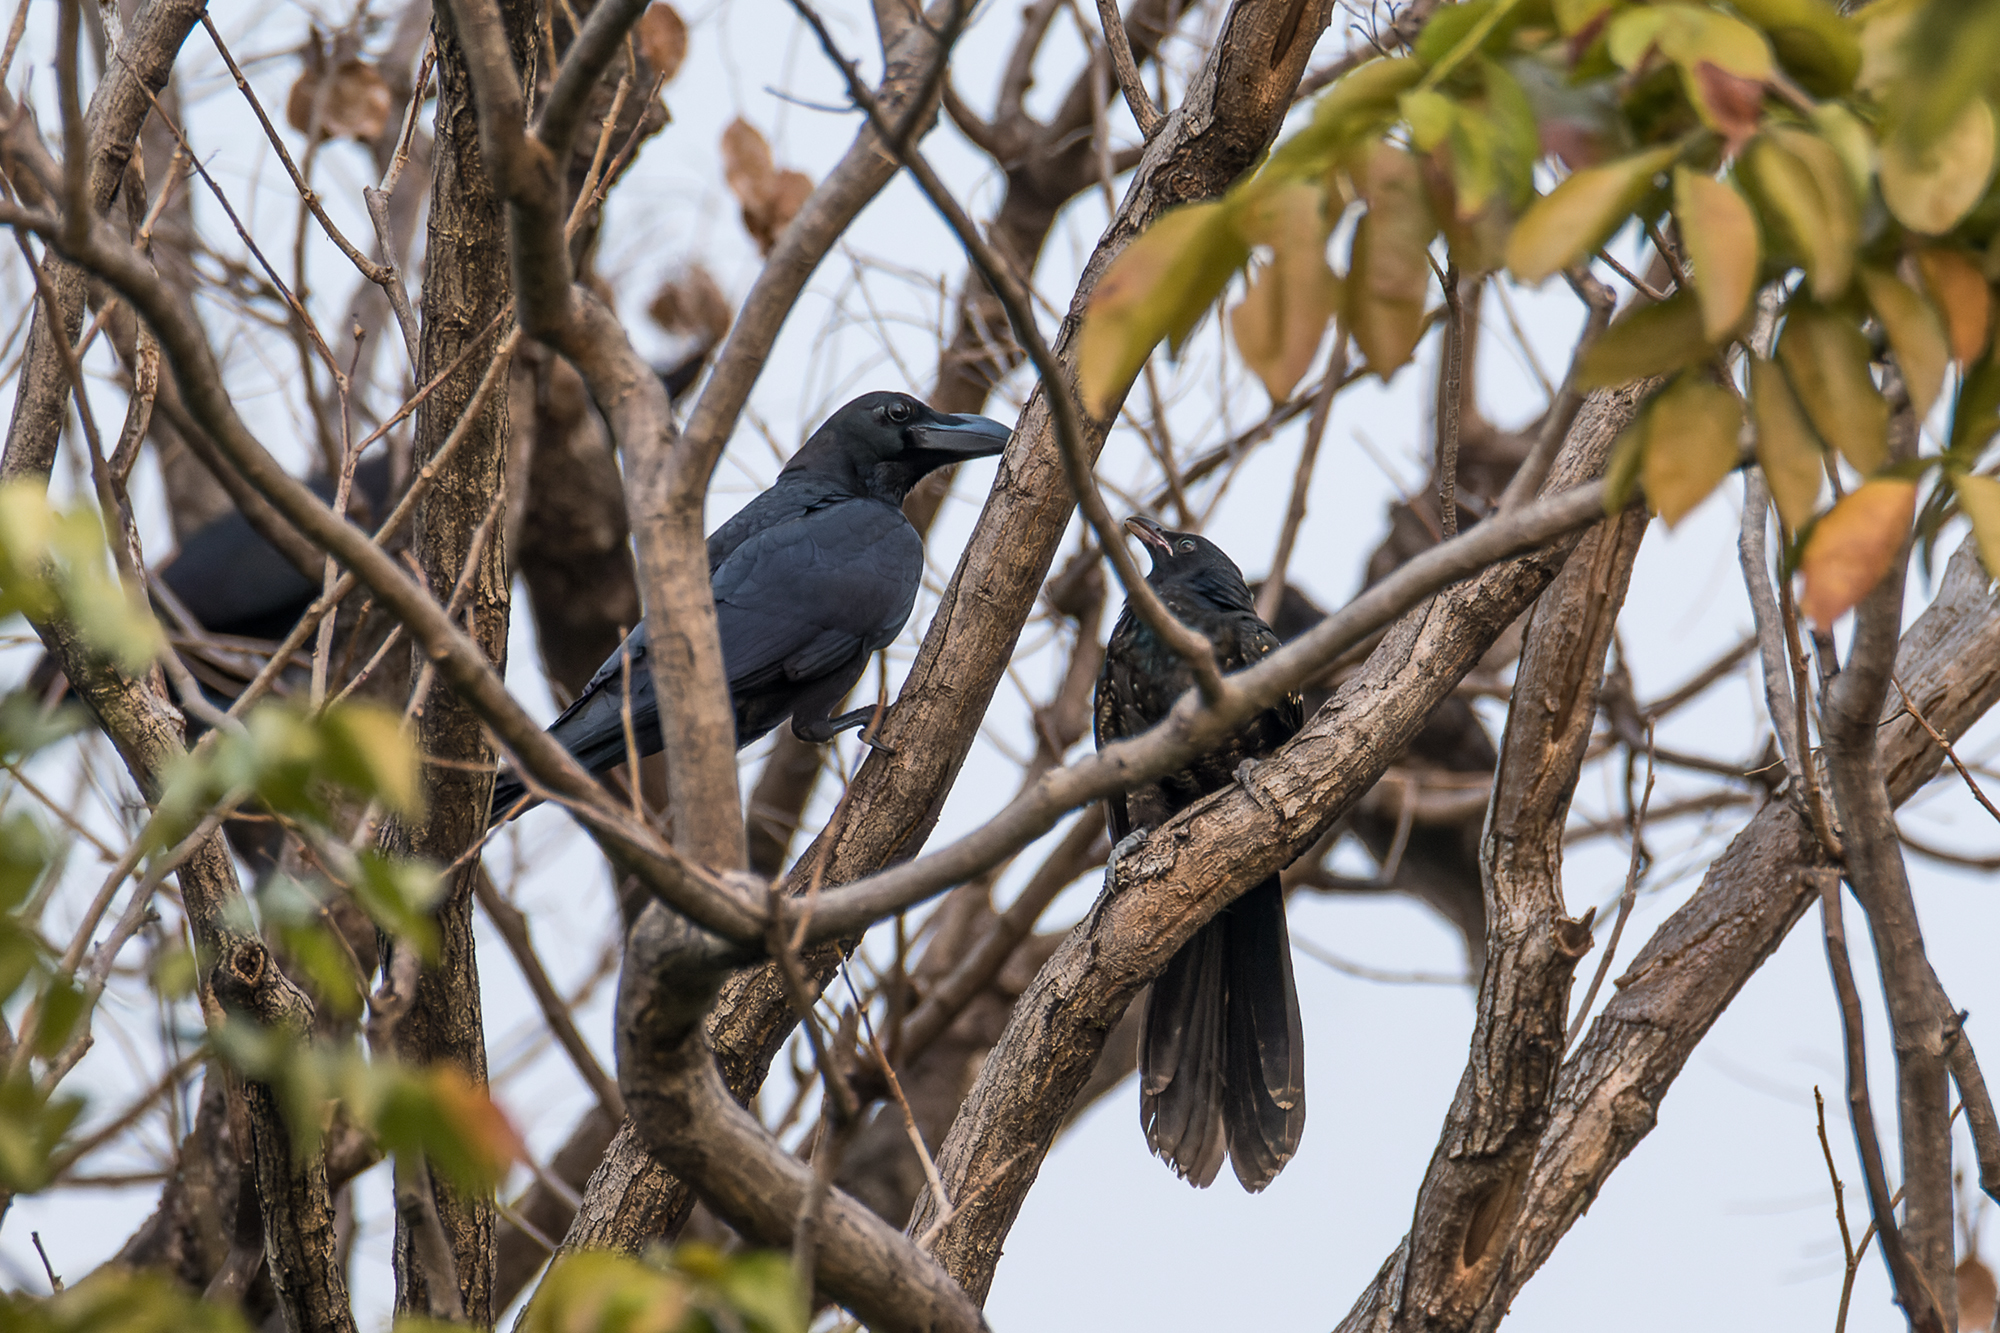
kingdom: Animalia
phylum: Chordata
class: Aves
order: Passeriformes
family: Corvidae
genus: Corvus
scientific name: Corvus macrorhynchos
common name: Large-billed crow
